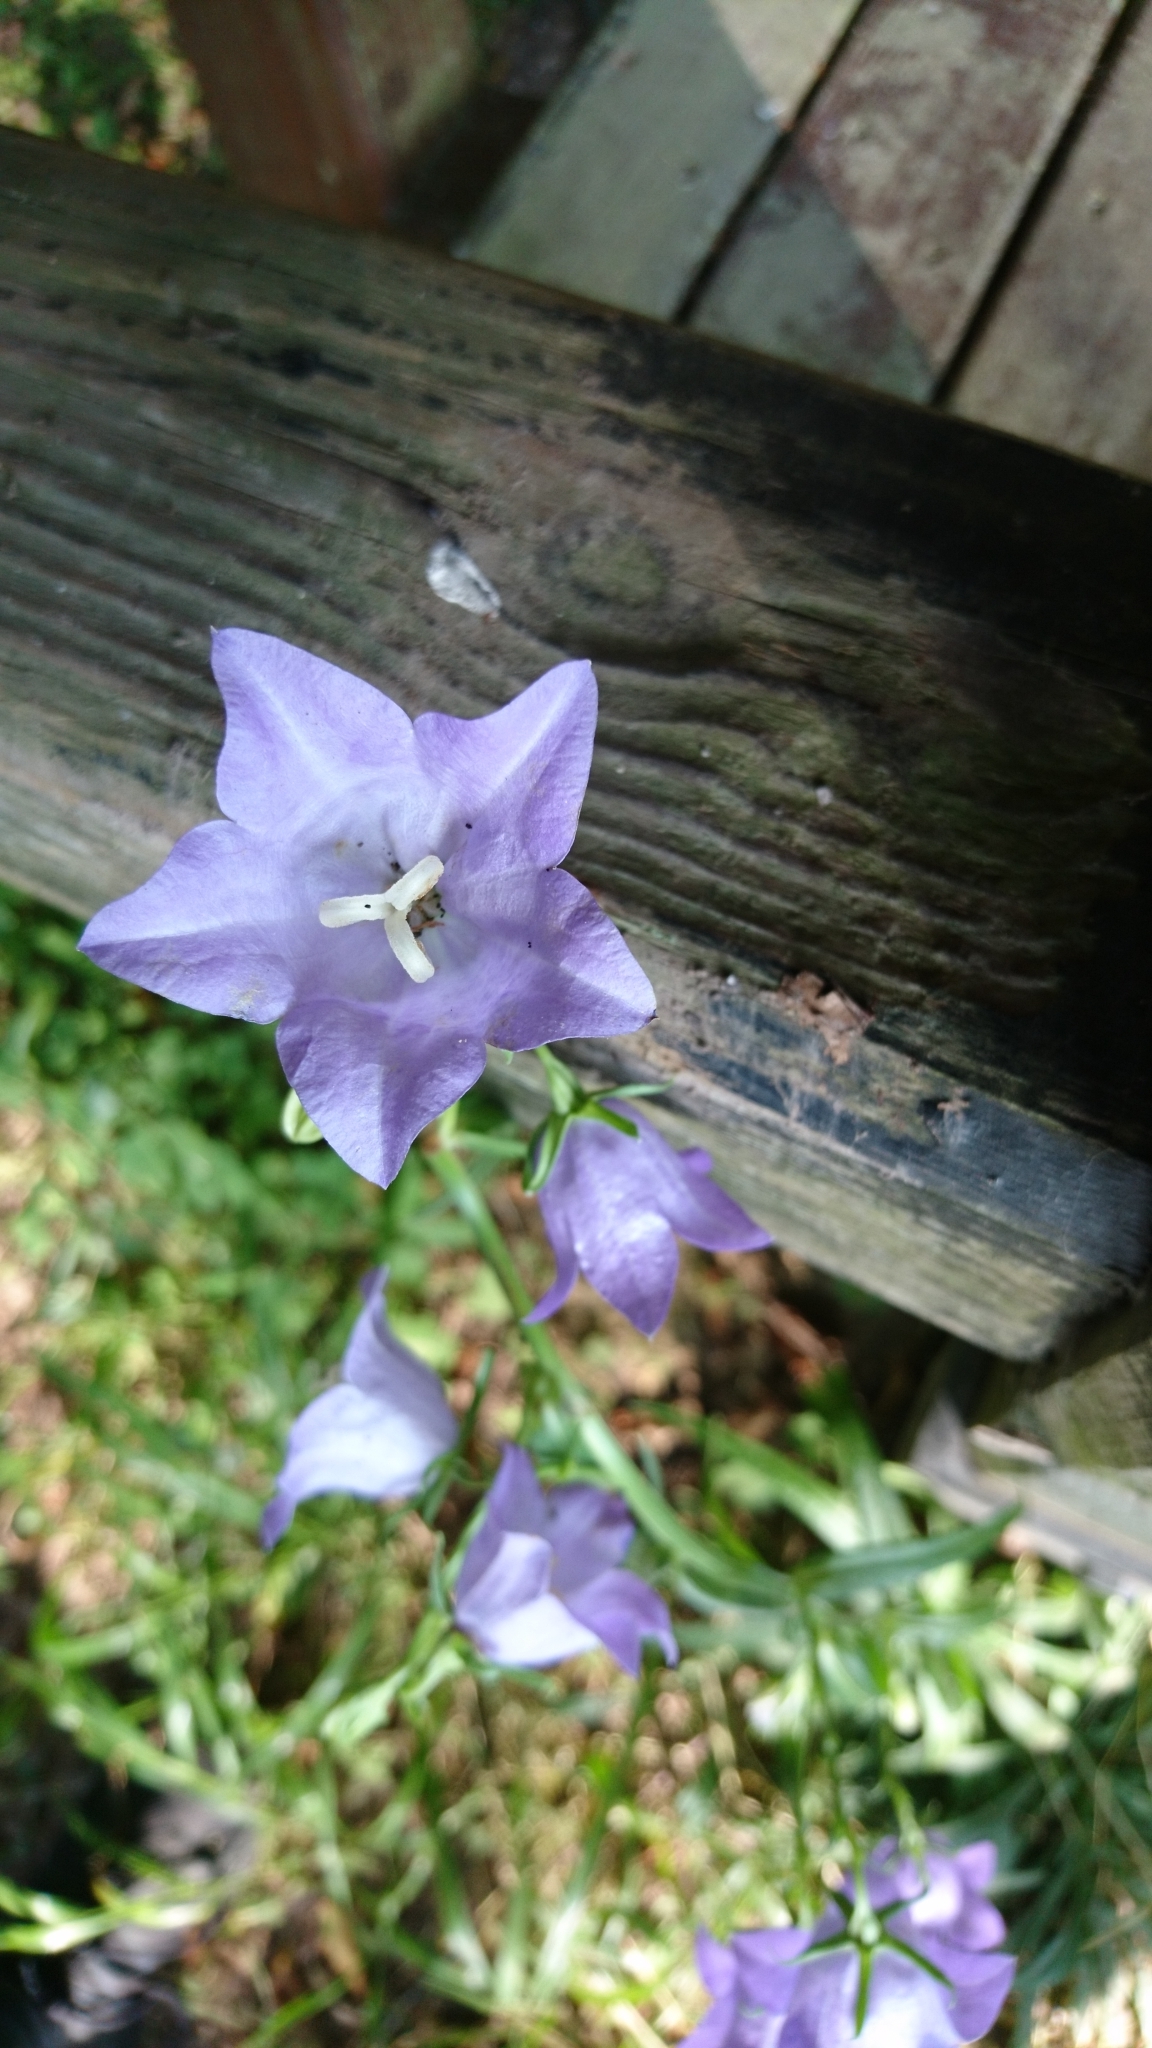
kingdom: Plantae
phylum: Tracheophyta
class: Magnoliopsida
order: Asterales
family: Campanulaceae
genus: Campanula
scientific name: Campanula persicifolia
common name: Peach-leaved bellflower
